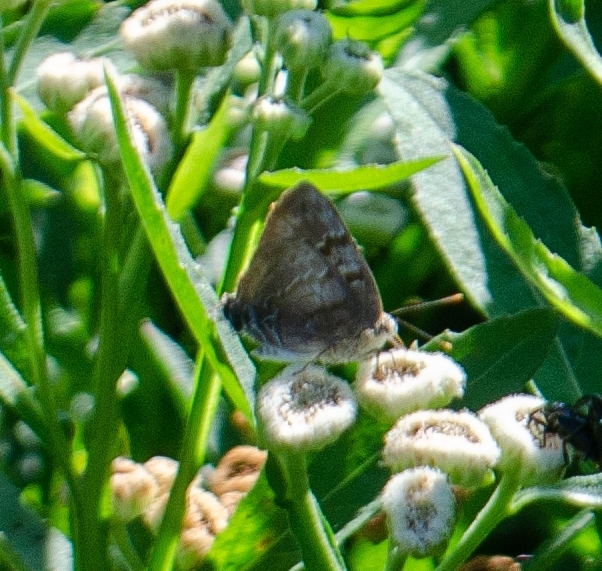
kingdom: Animalia
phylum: Arthropoda
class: Insecta
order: Lepidoptera
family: Lycaenidae
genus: Rekoa
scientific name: Rekoa palegon
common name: Gold-bordered hairstreak
